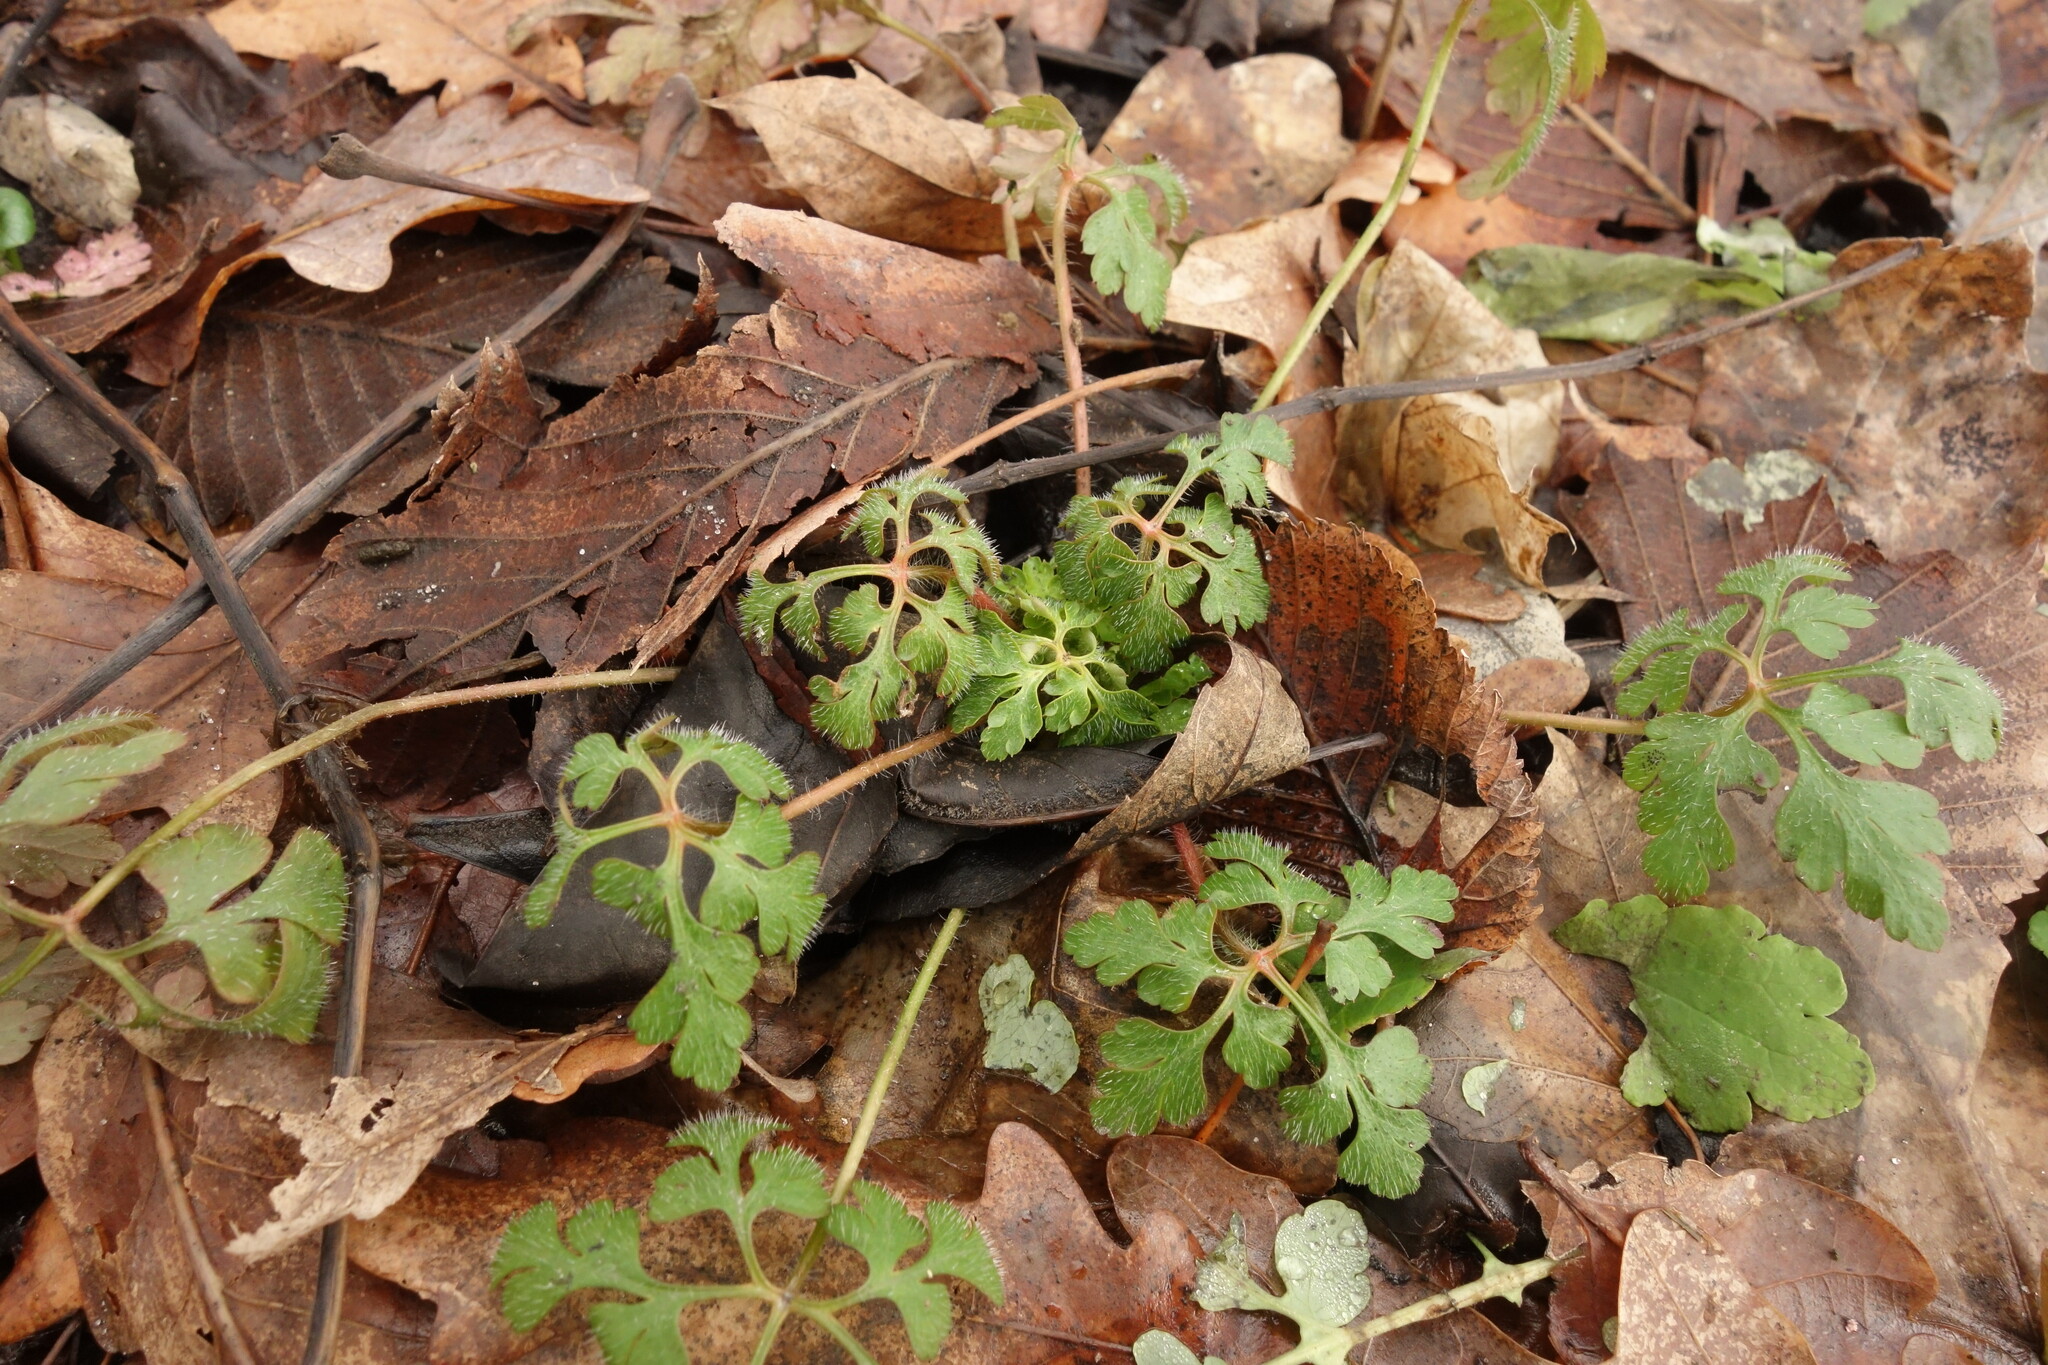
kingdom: Plantae
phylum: Tracheophyta
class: Magnoliopsida
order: Geraniales
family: Geraniaceae
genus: Geranium
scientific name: Geranium robertianum
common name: Herb-robert
